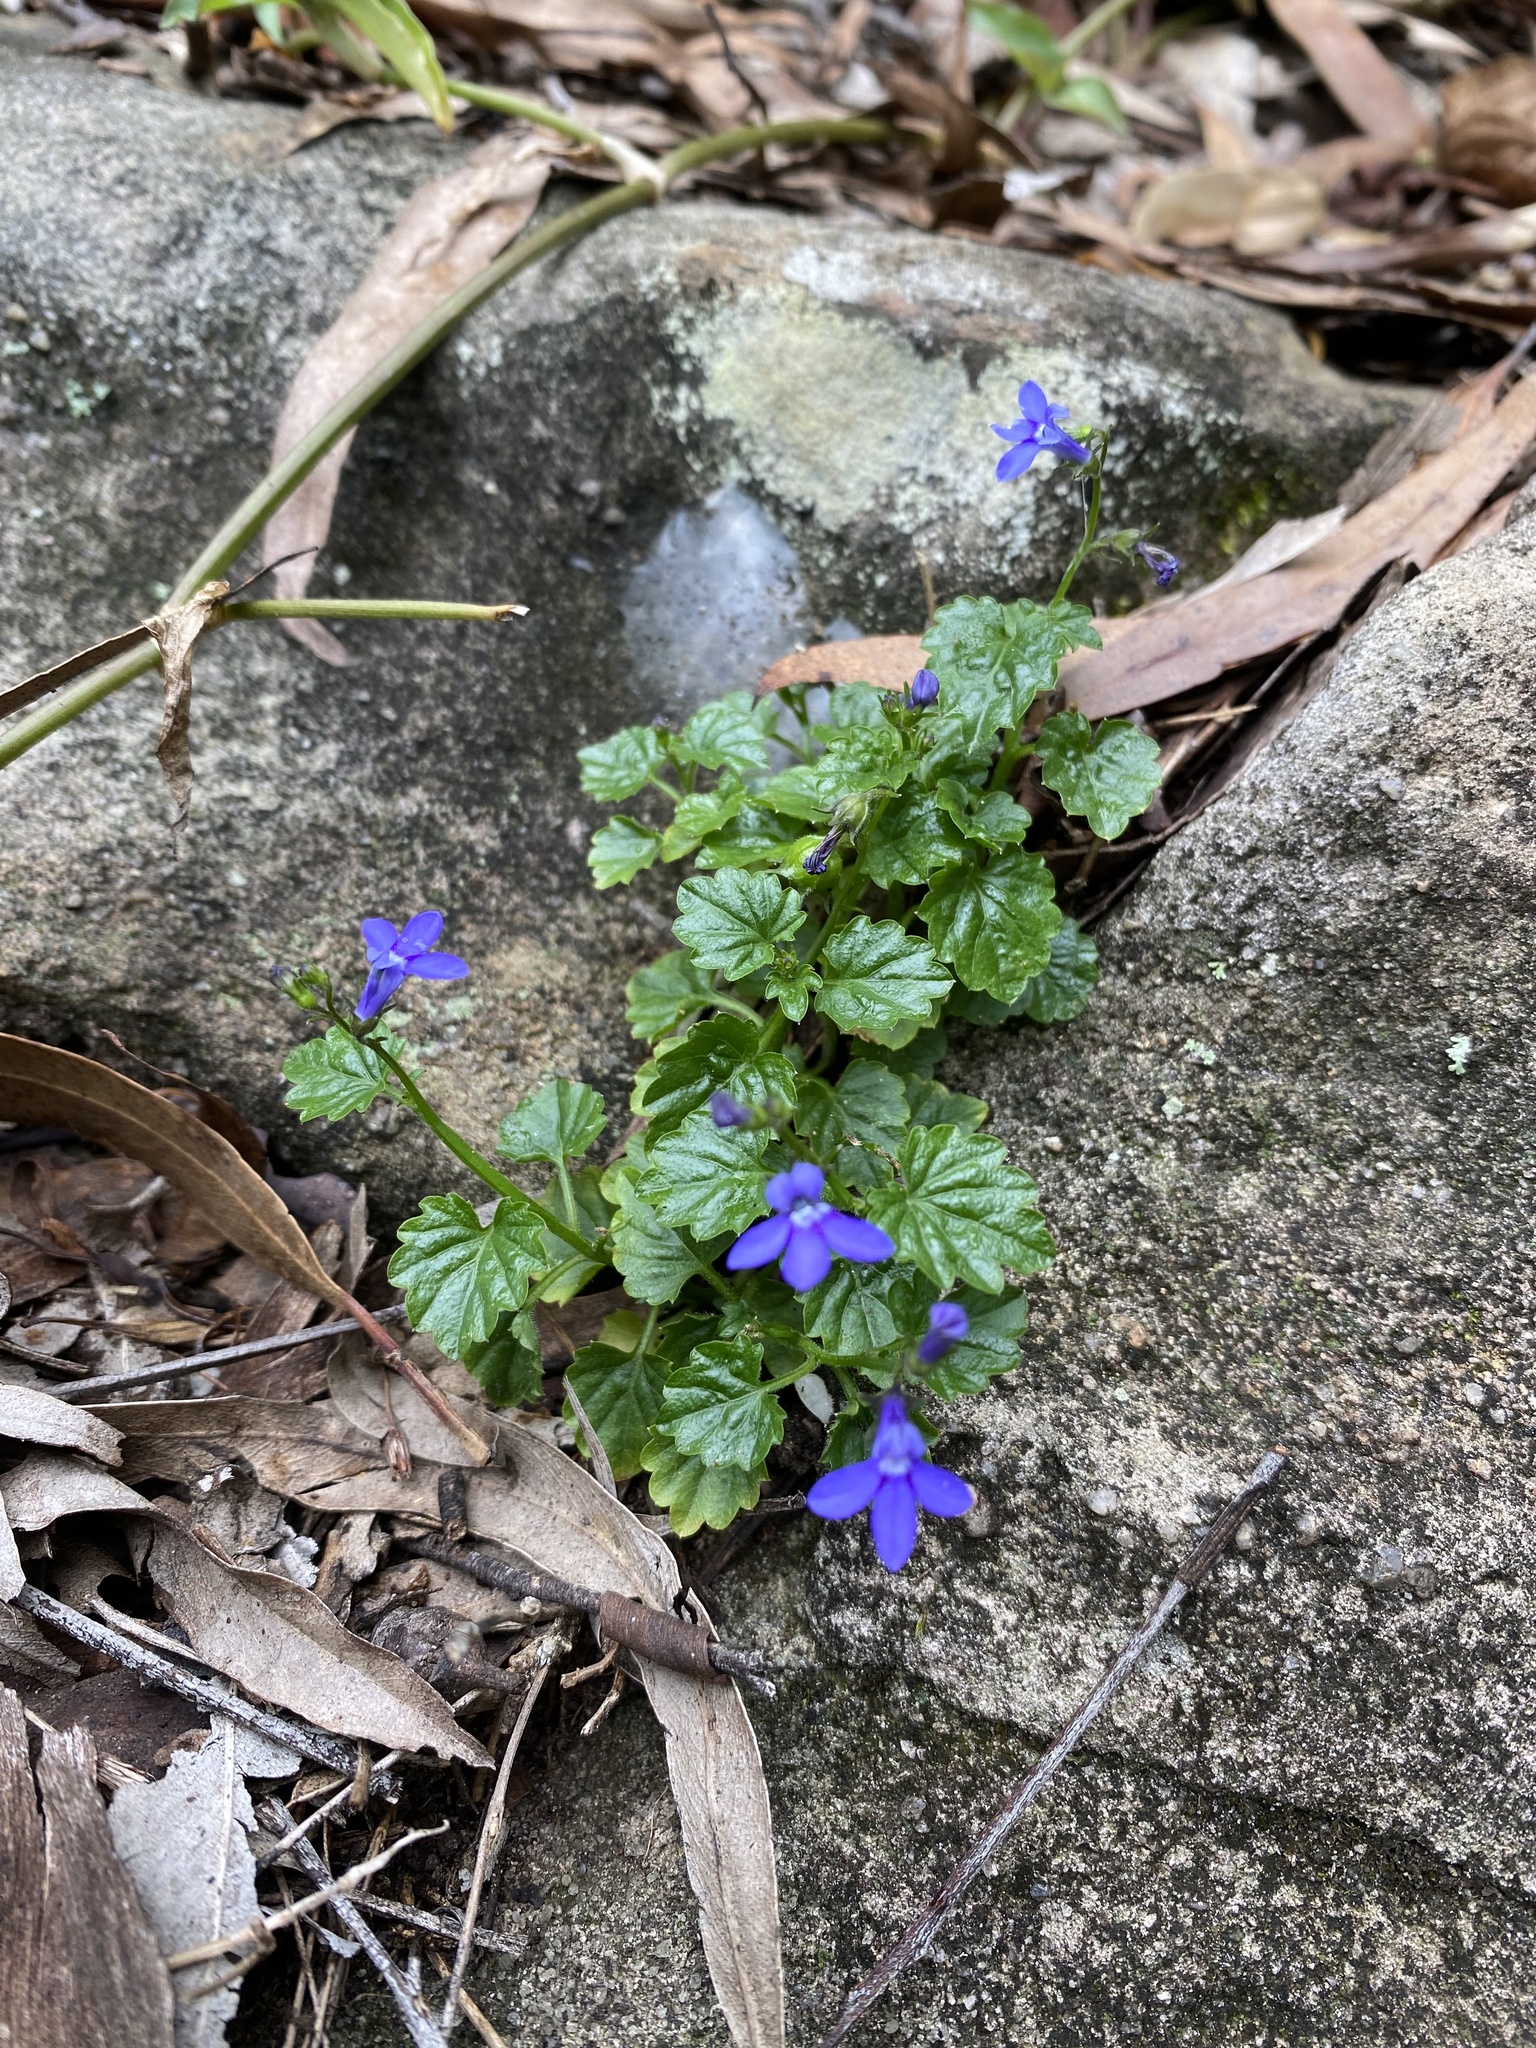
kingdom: Plantae
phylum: Tracheophyta
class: Magnoliopsida
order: Asterales
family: Campanulaceae
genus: Lobelia
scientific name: Lobelia trigonocaulis
